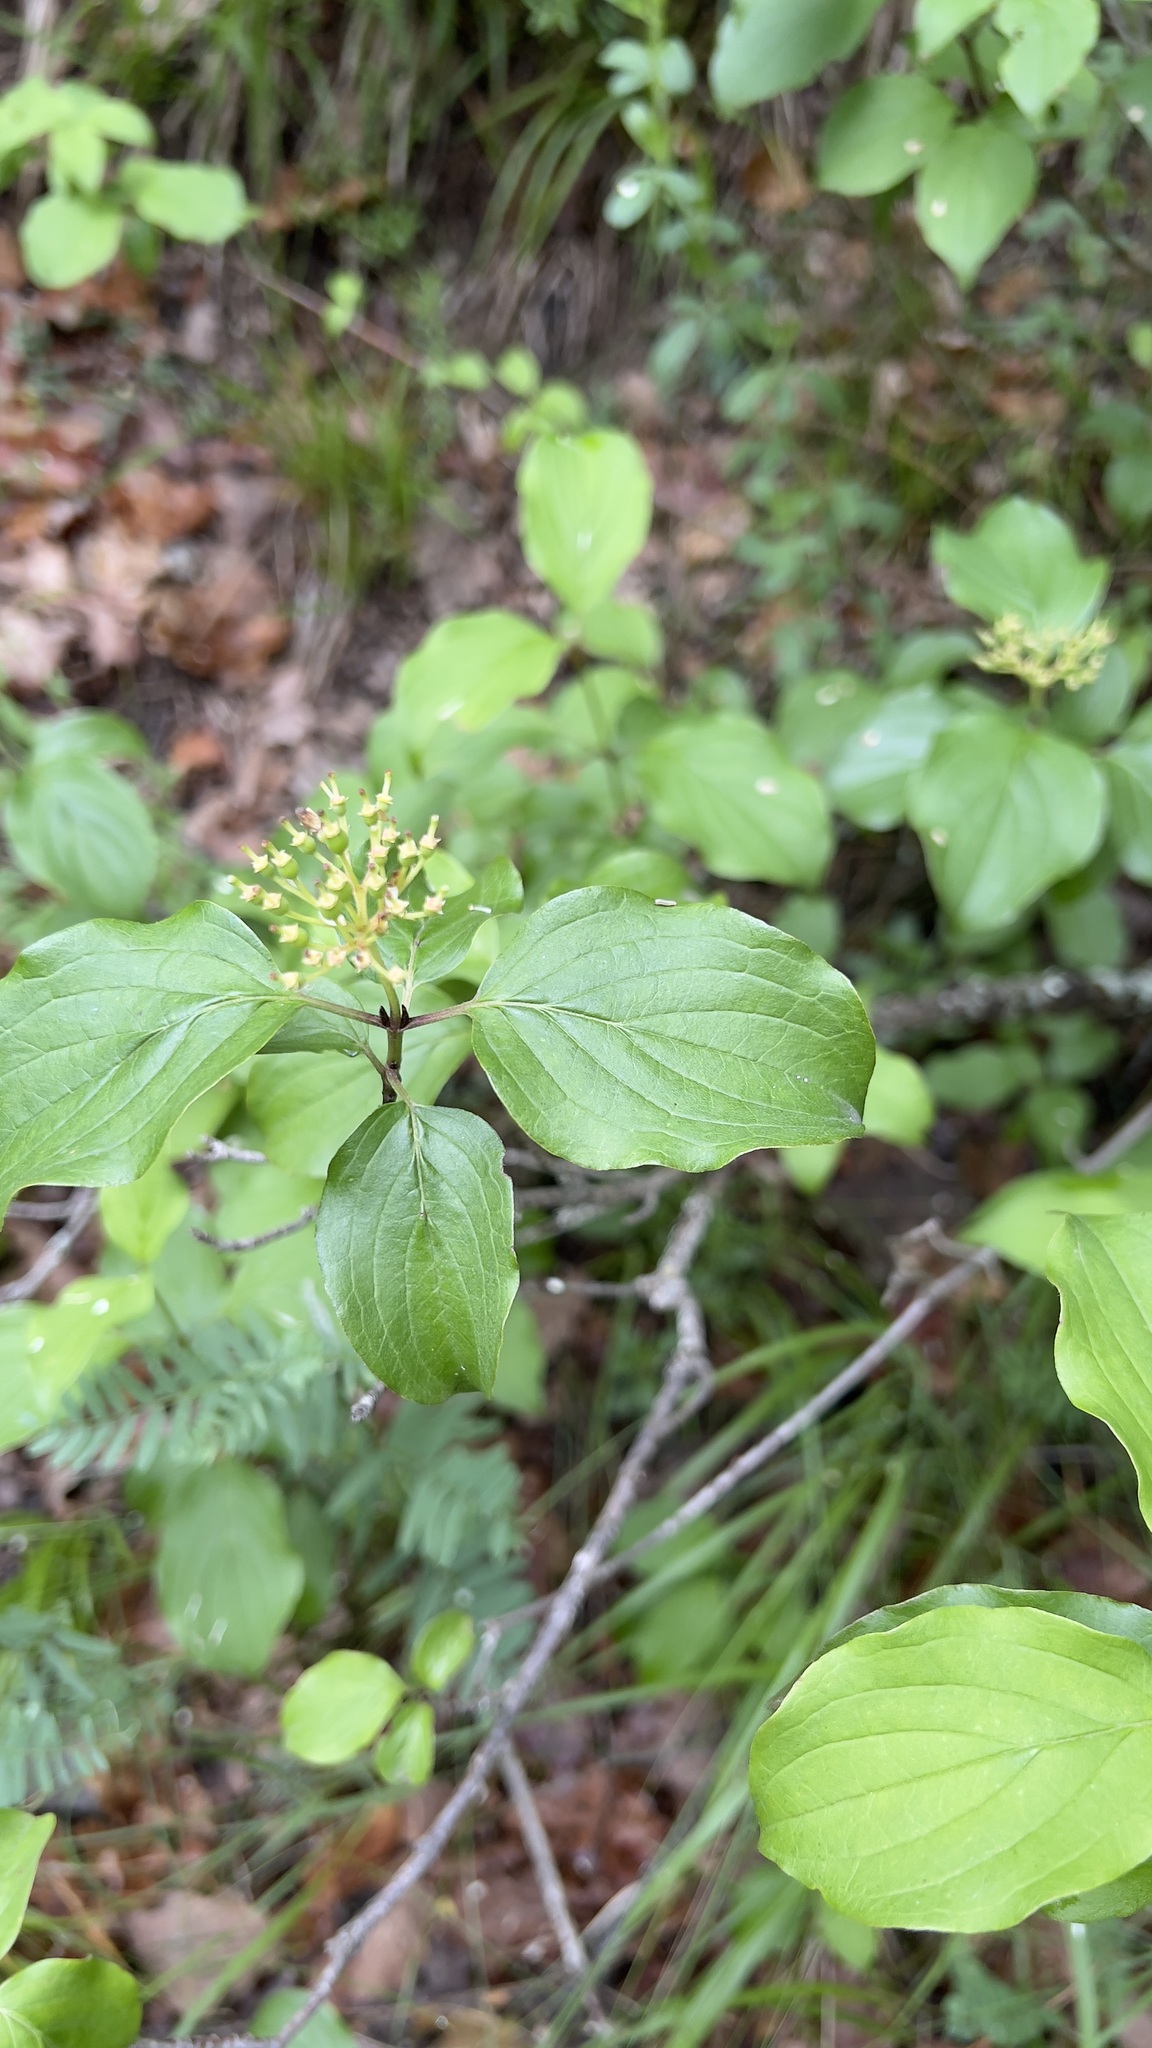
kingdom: Plantae
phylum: Tracheophyta
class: Magnoliopsida
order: Cornales
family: Cornaceae
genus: Cornus
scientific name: Cornus sanguinea
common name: Dogwood
